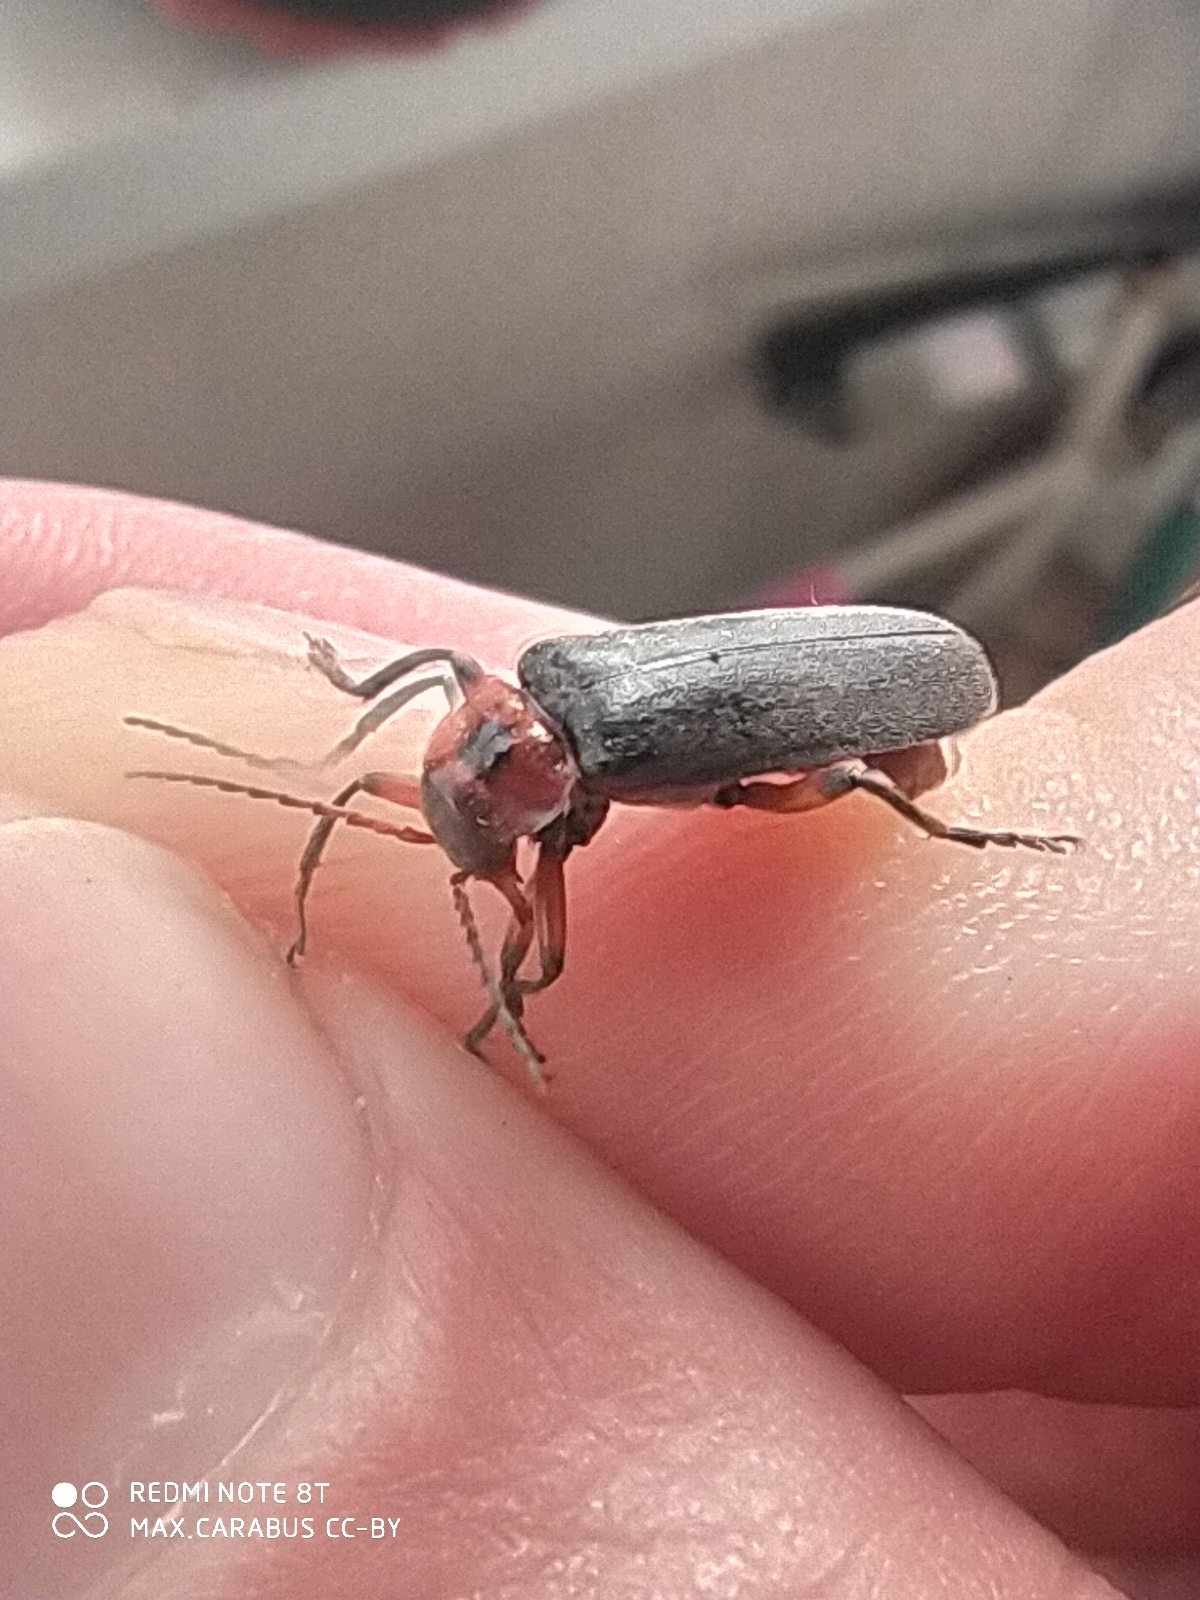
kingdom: Animalia
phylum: Arthropoda
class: Insecta
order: Coleoptera
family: Cantharidae
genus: Cantharis
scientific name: Cantharis rustica
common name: Soldier beetle
